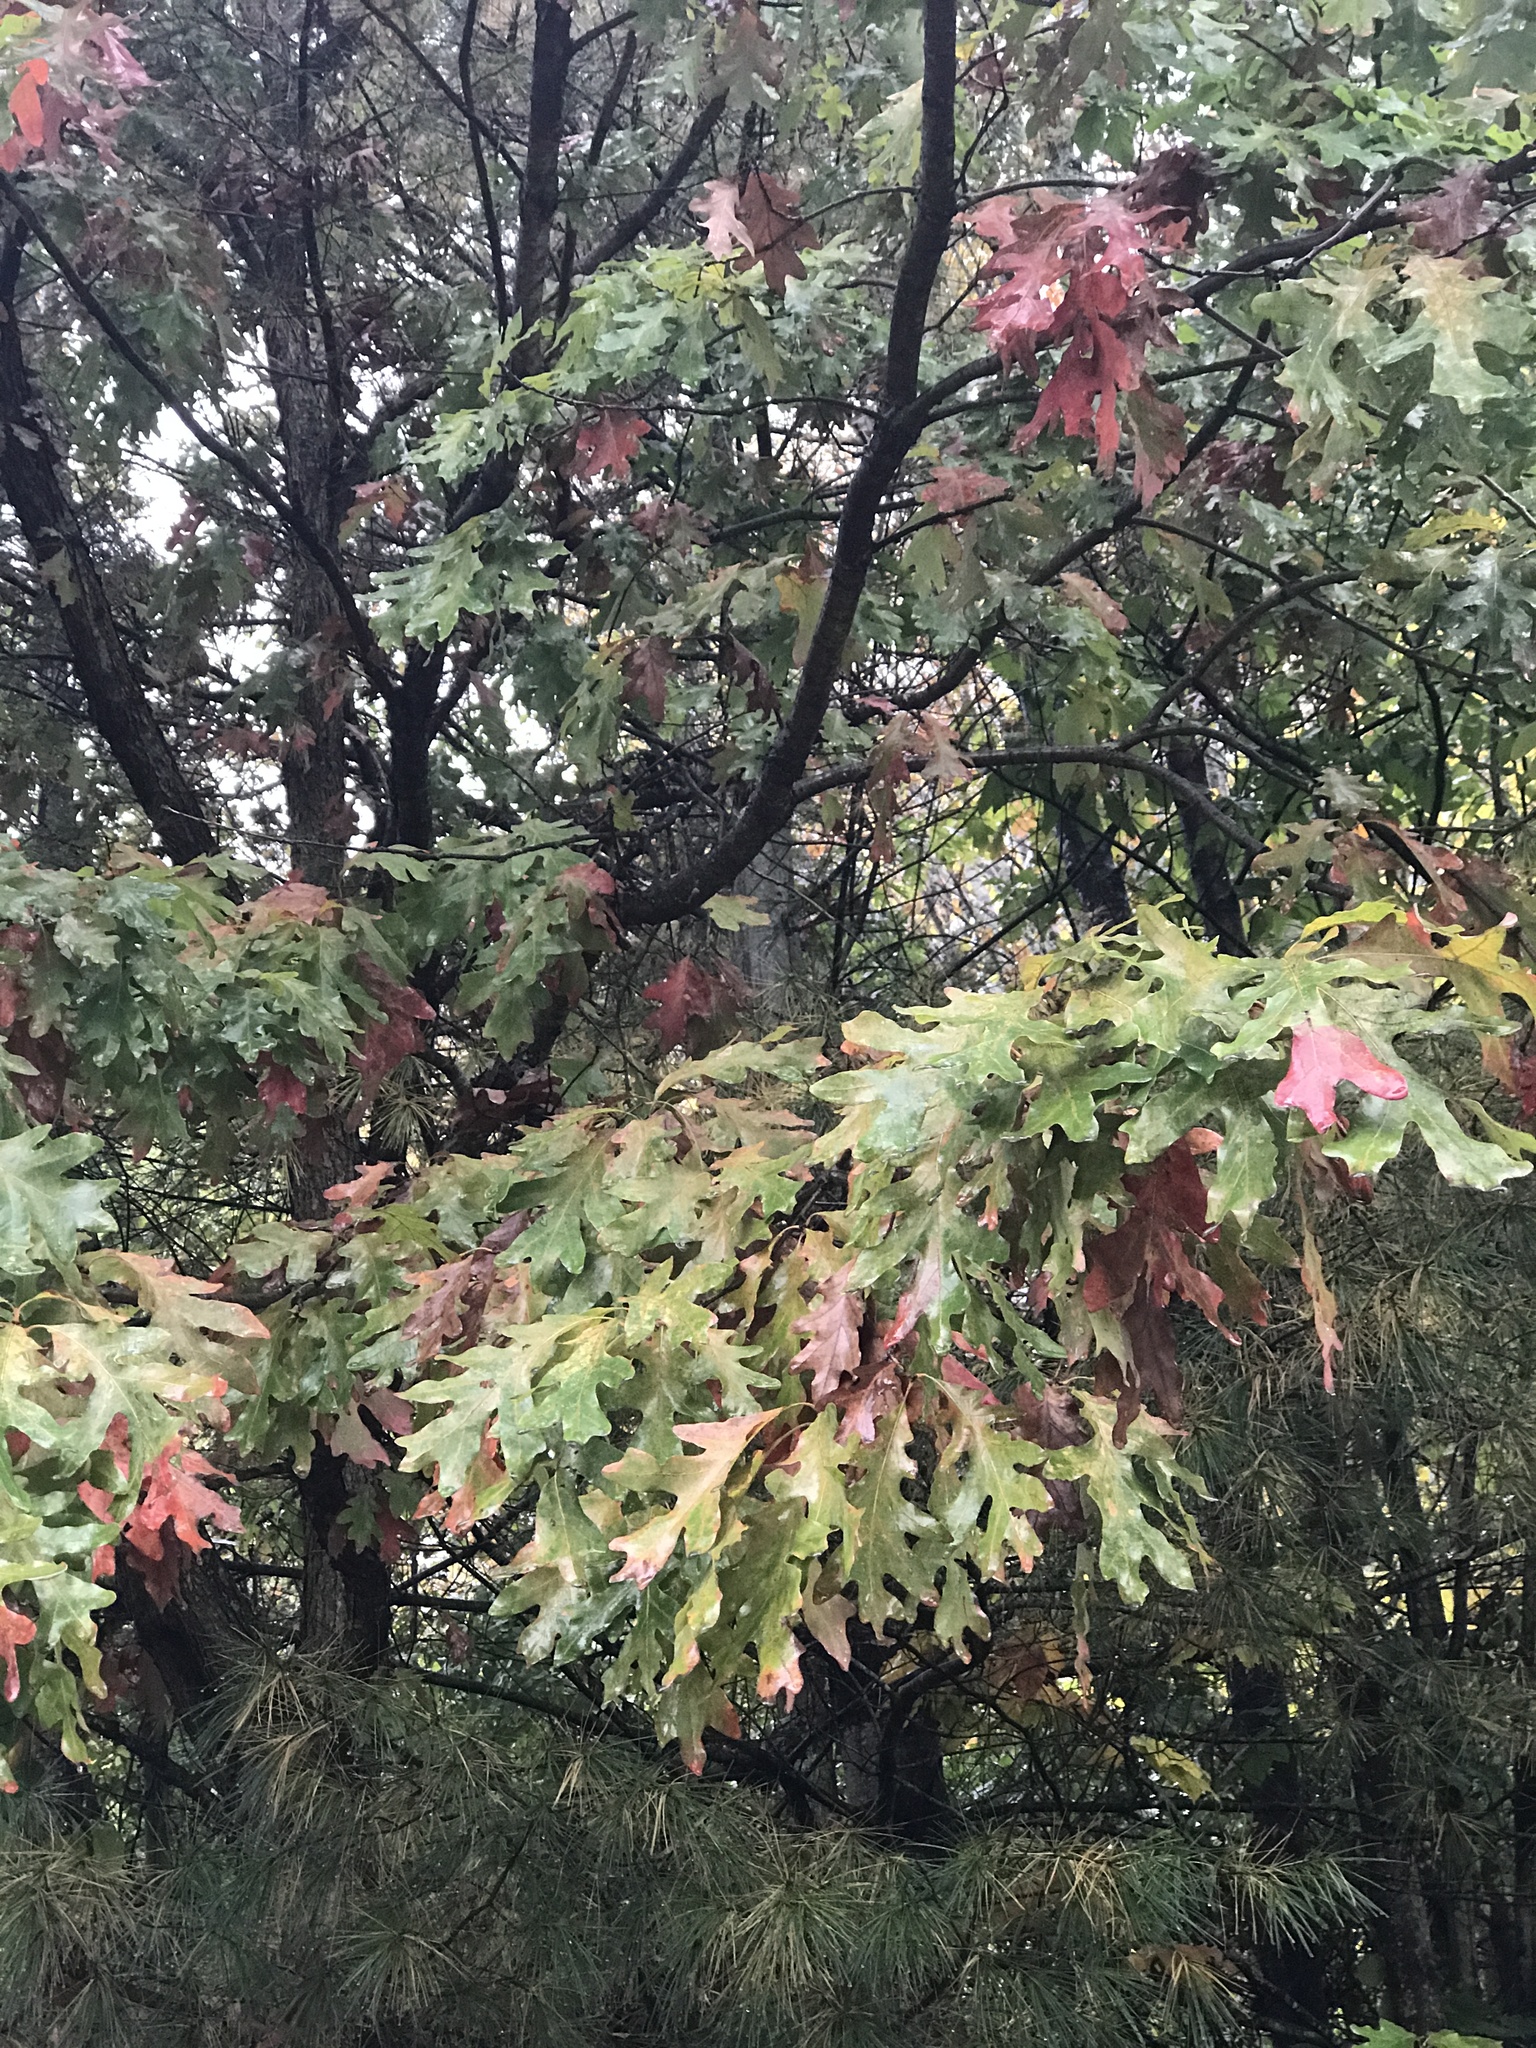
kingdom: Plantae
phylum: Tracheophyta
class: Magnoliopsida
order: Fagales
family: Fagaceae
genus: Quercus
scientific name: Quercus alba
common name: White oak
